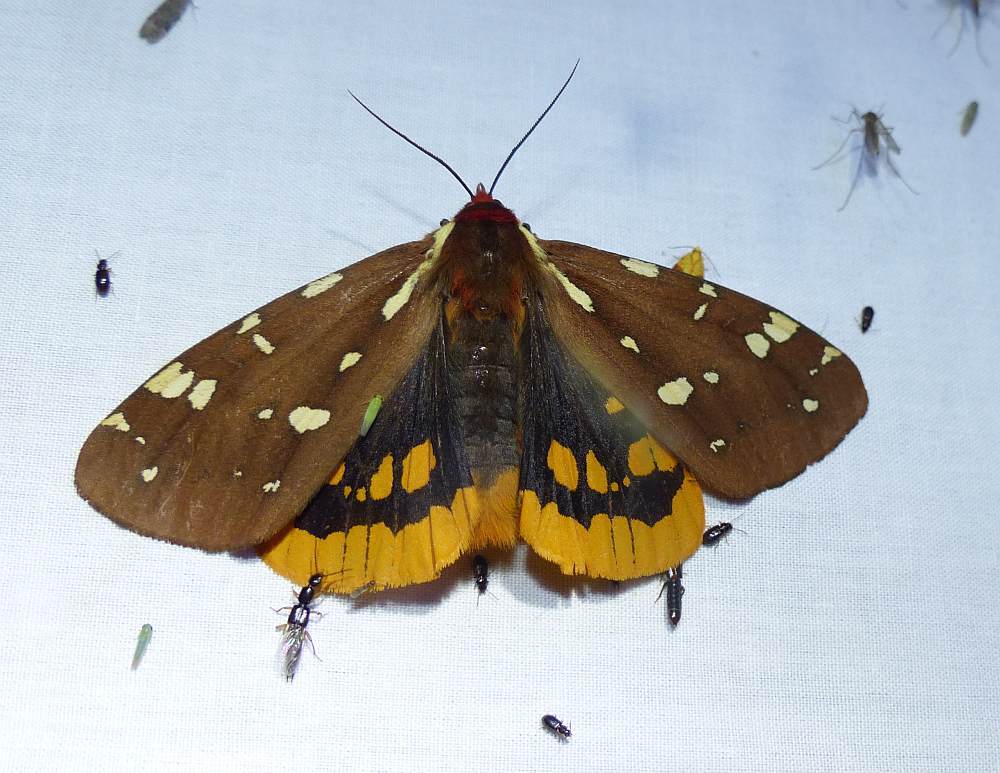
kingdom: Animalia
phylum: Arthropoda
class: Insecta
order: Lepidoptera
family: Erebidae
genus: Arctia
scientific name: Arctia parthenos
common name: St. lawrence tiger moth
